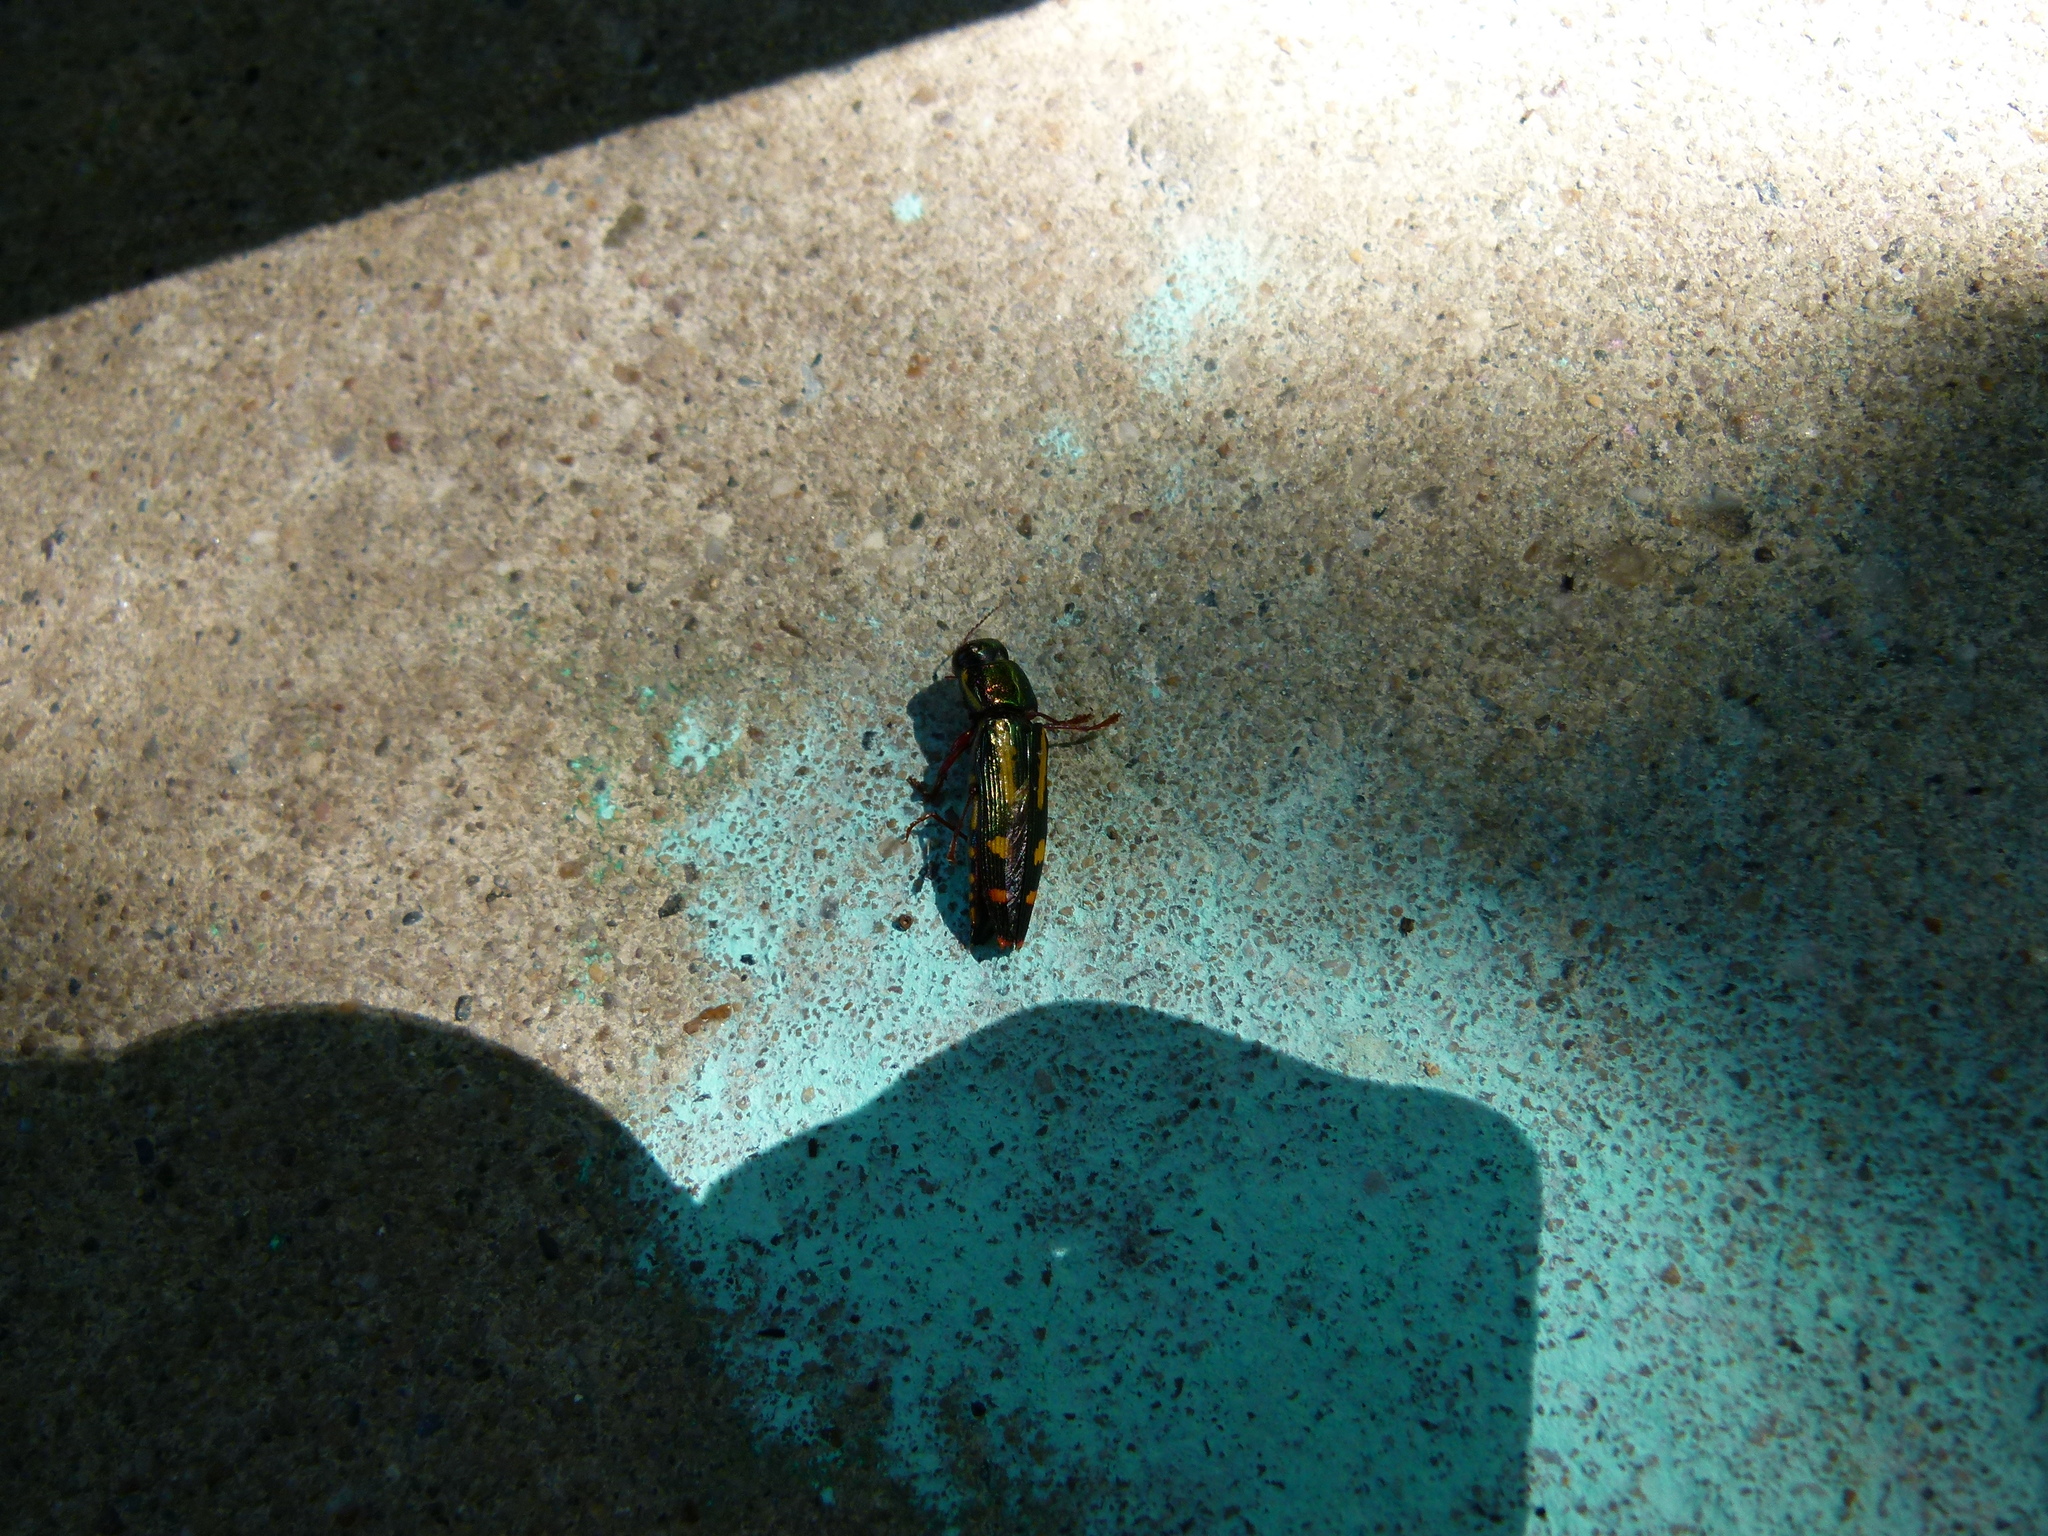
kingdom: Animalia
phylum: Arthropoda
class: Insecta
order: Coleoptera
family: Buprestidae
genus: Buprestis
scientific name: Buprestis rufipes
